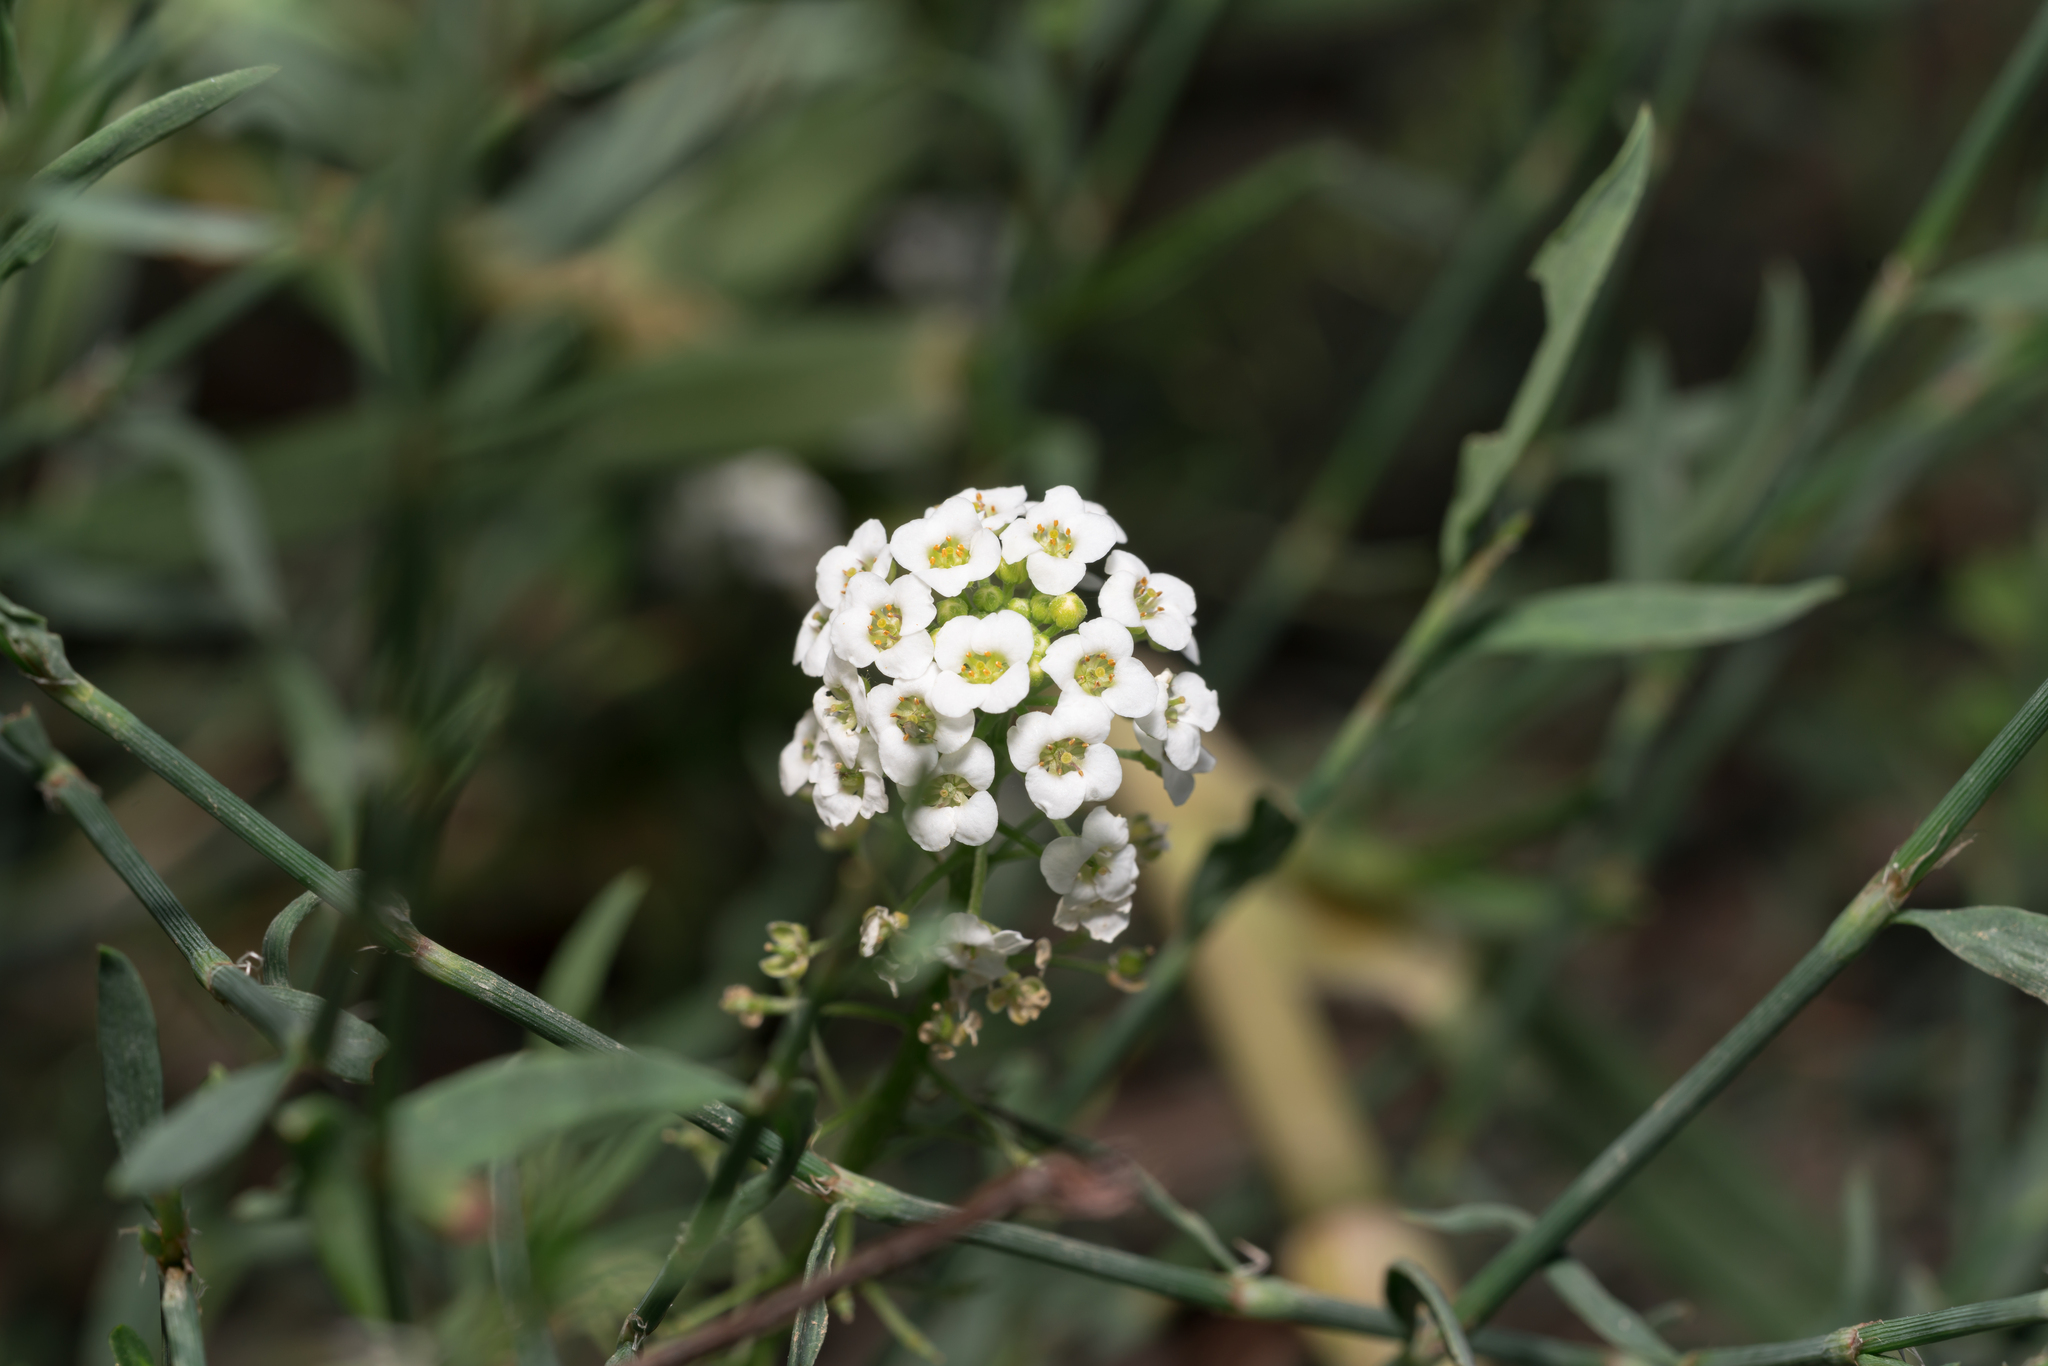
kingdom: Plantae
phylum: Tracheophyta
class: Magnoliopsida
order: Brassicales
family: Brassicaceae
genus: Lobularia
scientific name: Lobularia maritima
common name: Sweet alison
